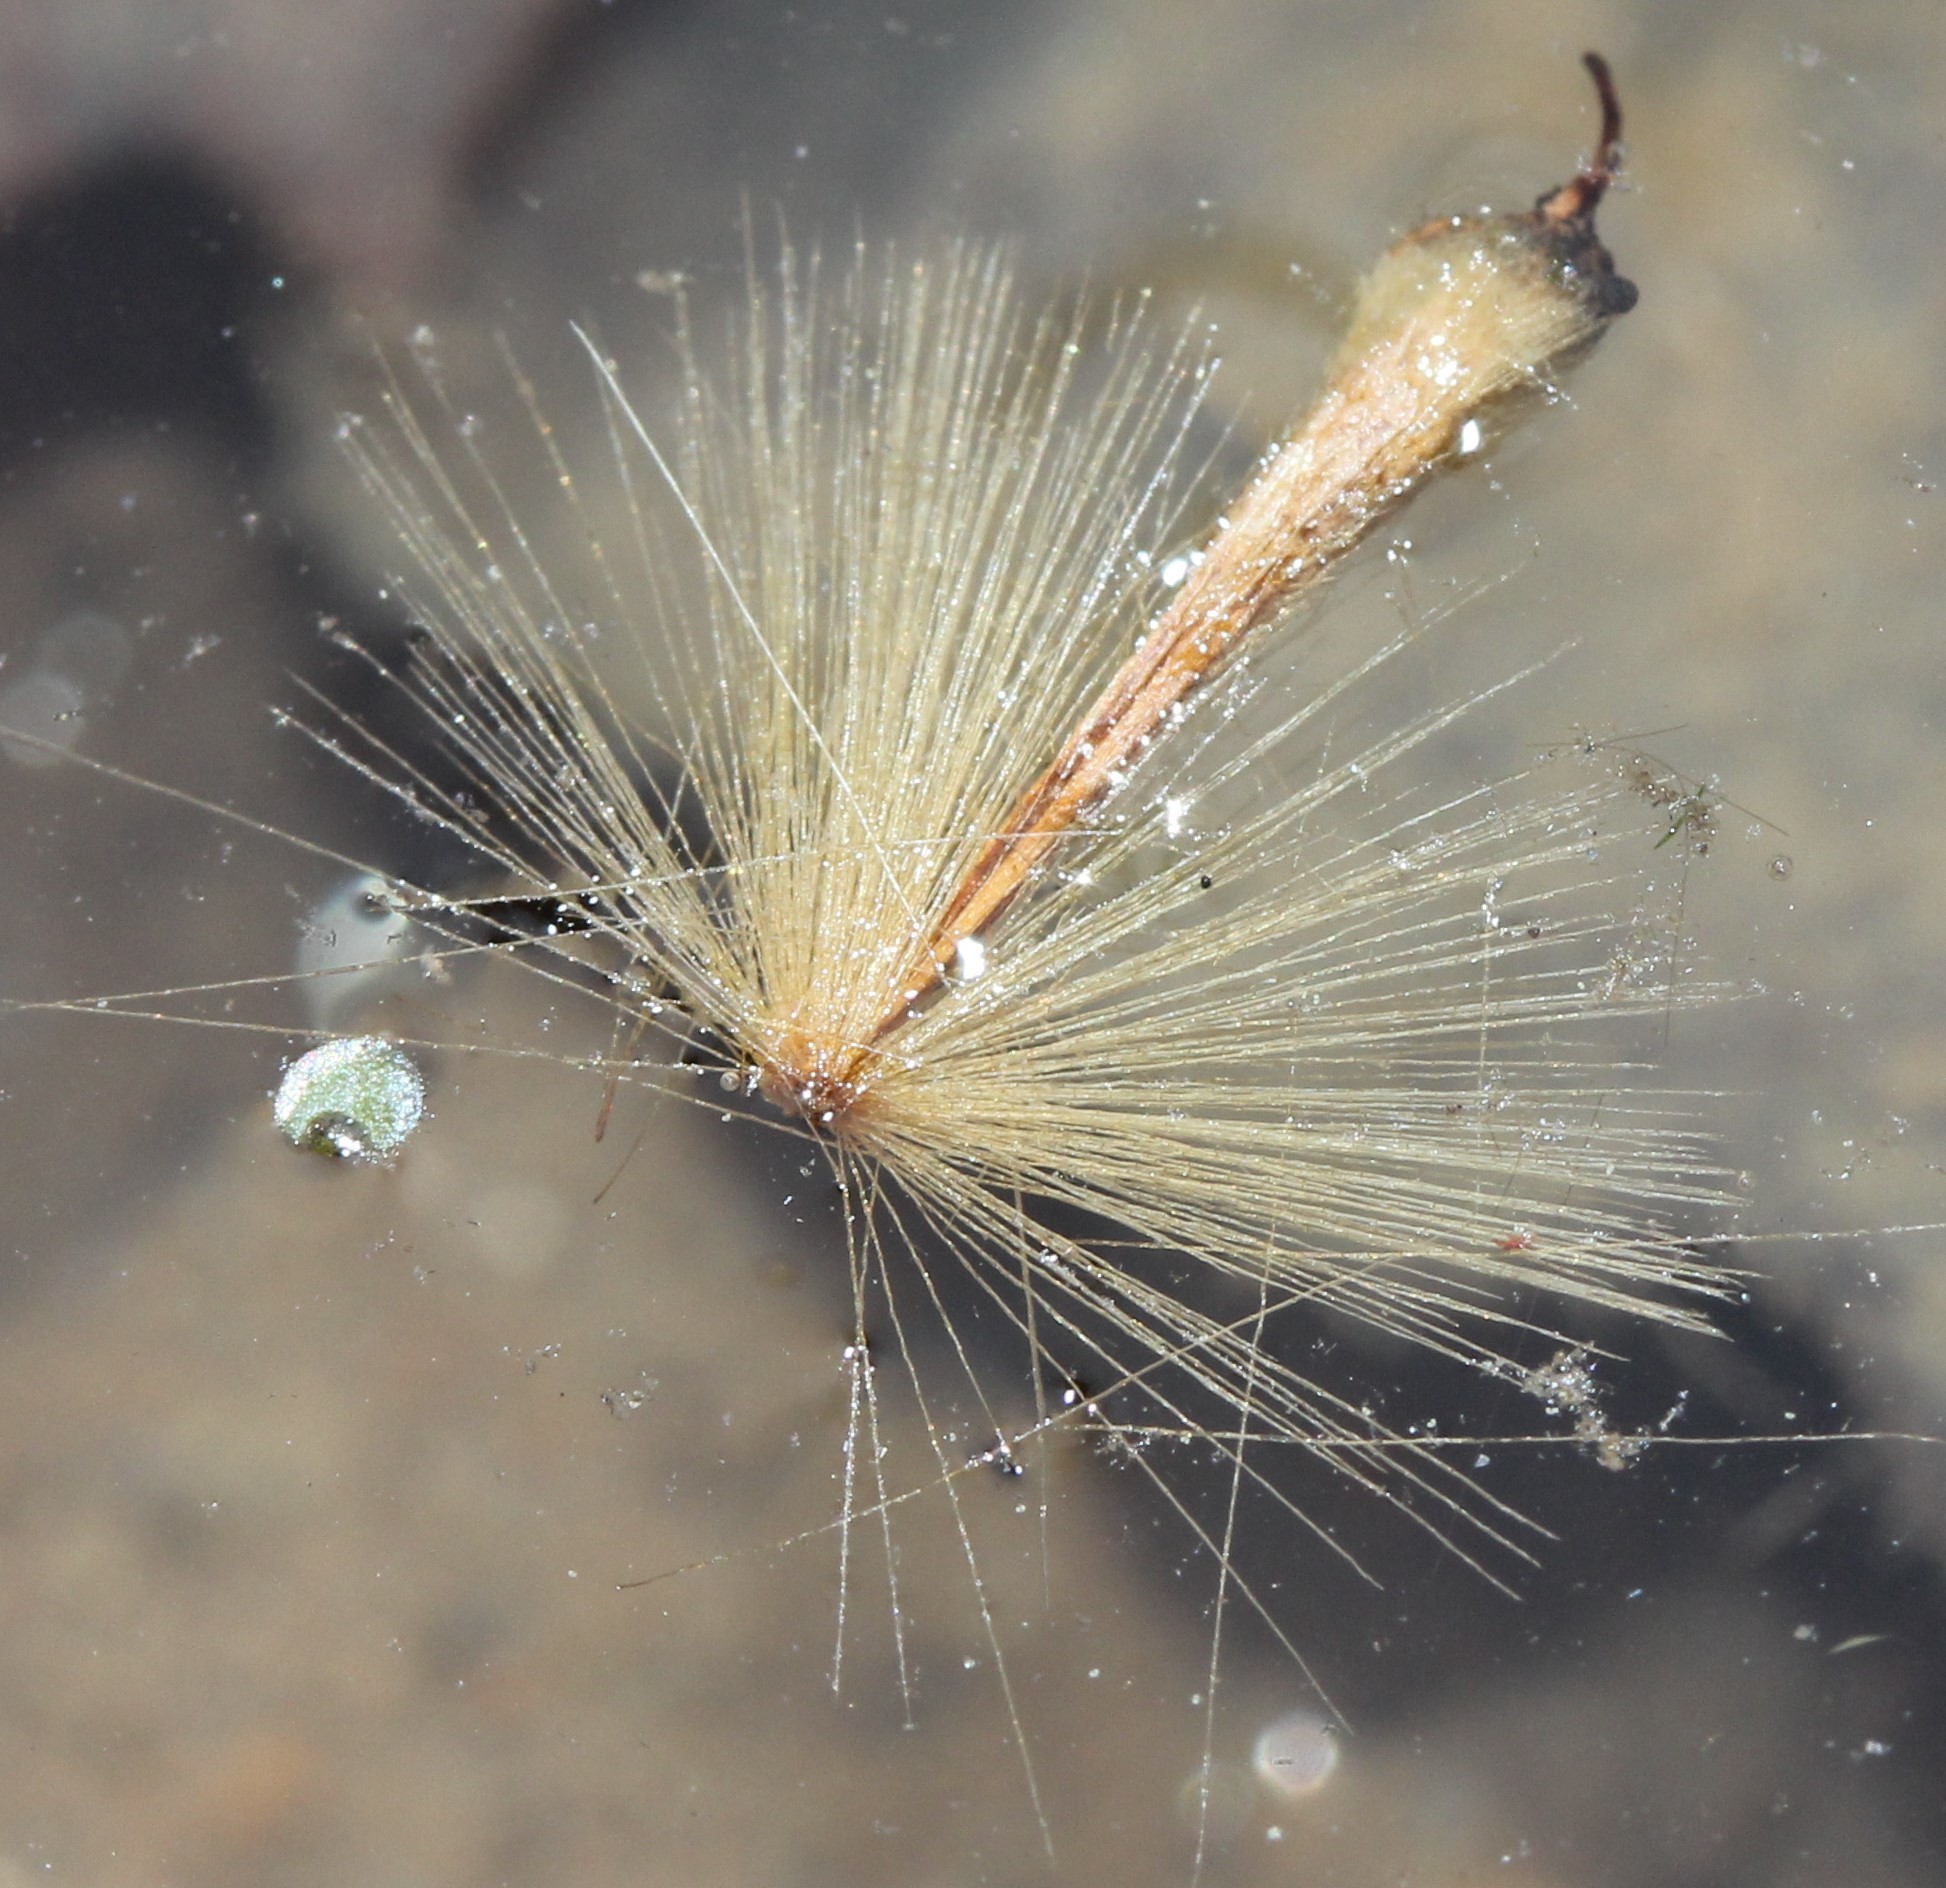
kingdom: Plantae
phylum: Tracheophyta
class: Magnoliopsida
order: Proteales
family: Platanaceae
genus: Platanus
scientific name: Platanus occidentalis
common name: American sycamore
